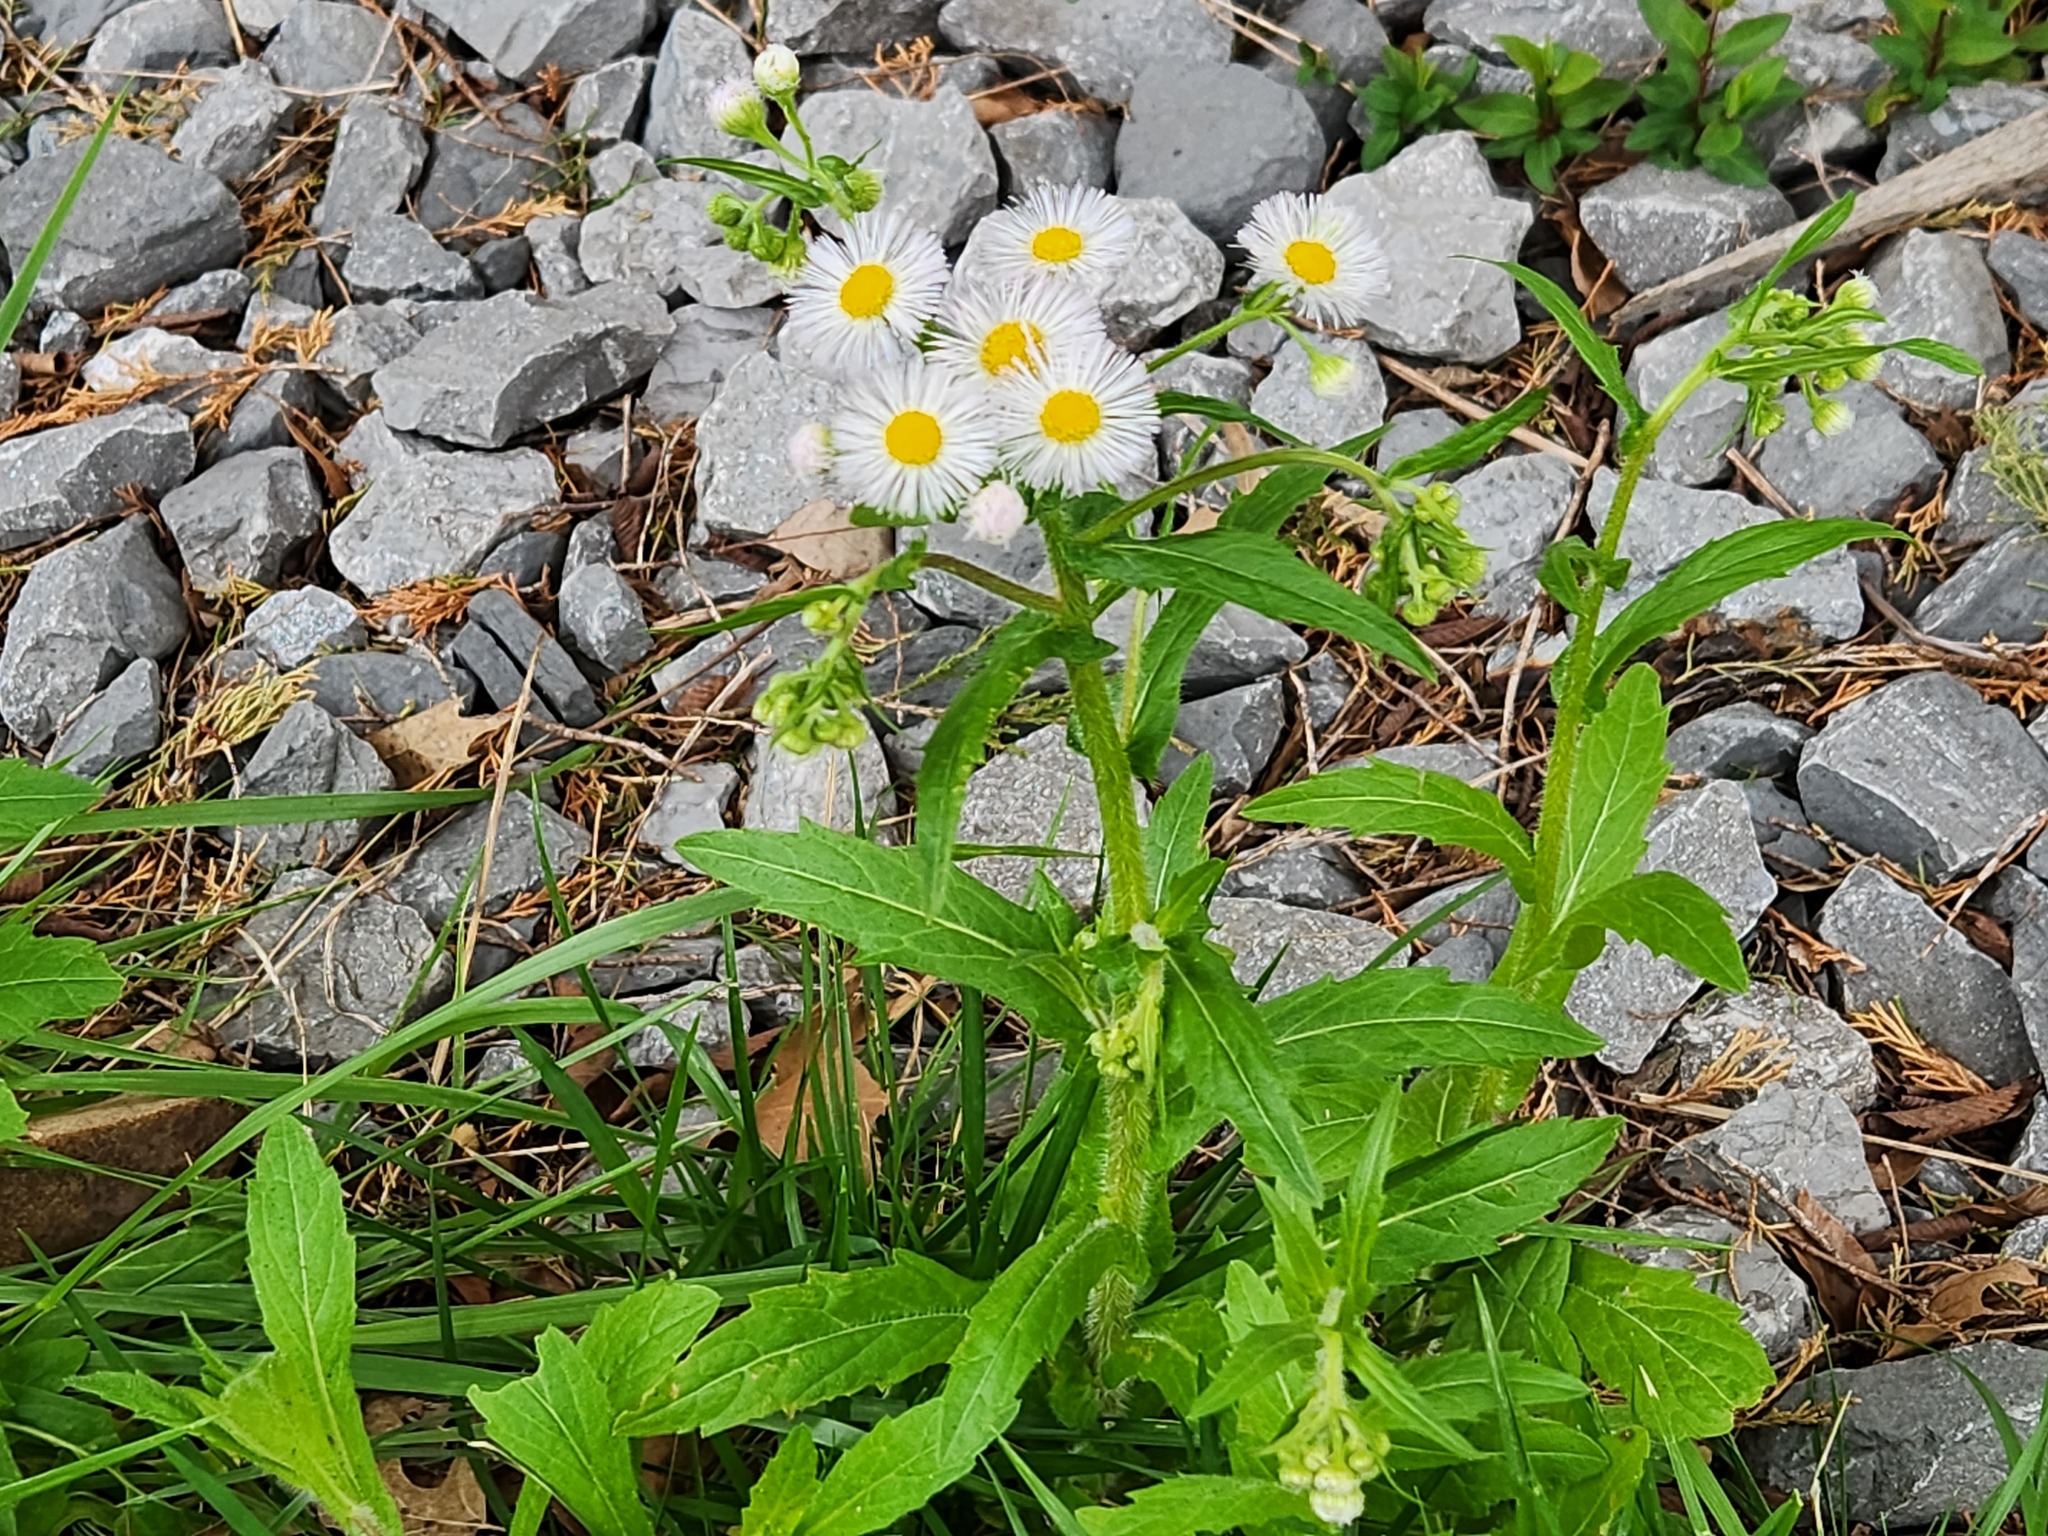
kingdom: Plantae
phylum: Tracheophyta
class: Magnoliopsida
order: Asterales
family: Asteraceae
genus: Erigeron
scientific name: Erigeron philadelphicus
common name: Robin's-plantain
